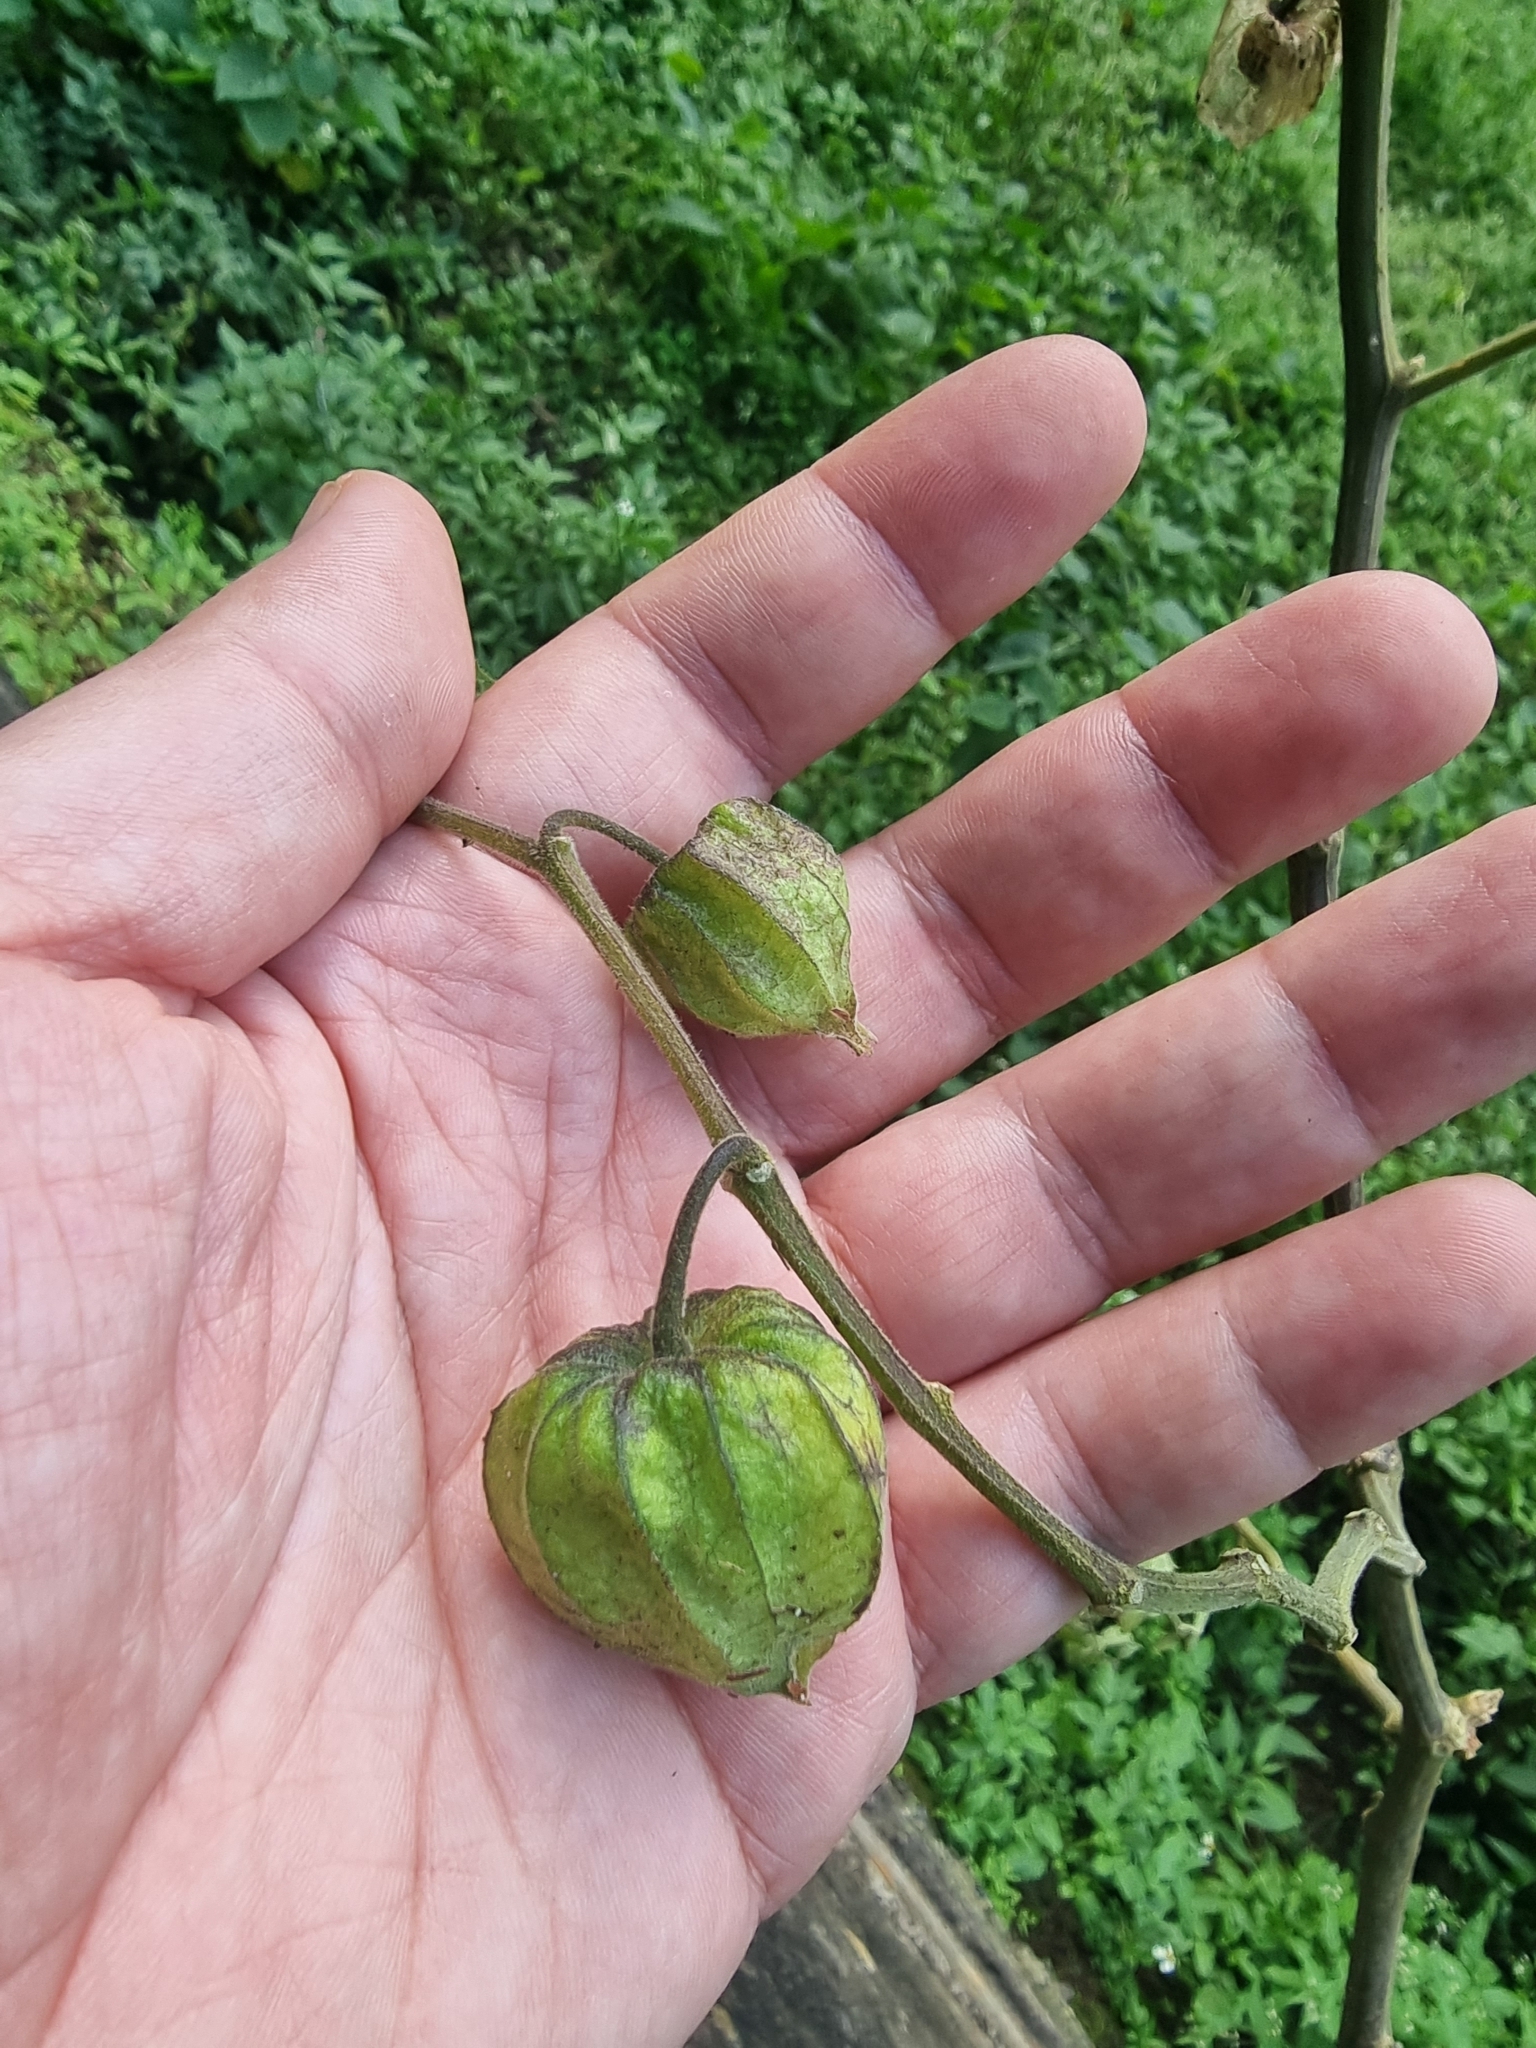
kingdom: Plantae
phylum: Tracheophyta
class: Magnoliopsida
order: Solanales
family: Solanaceae
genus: Physalis
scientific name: Physalis peruviana
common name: Cape-gooseberry
